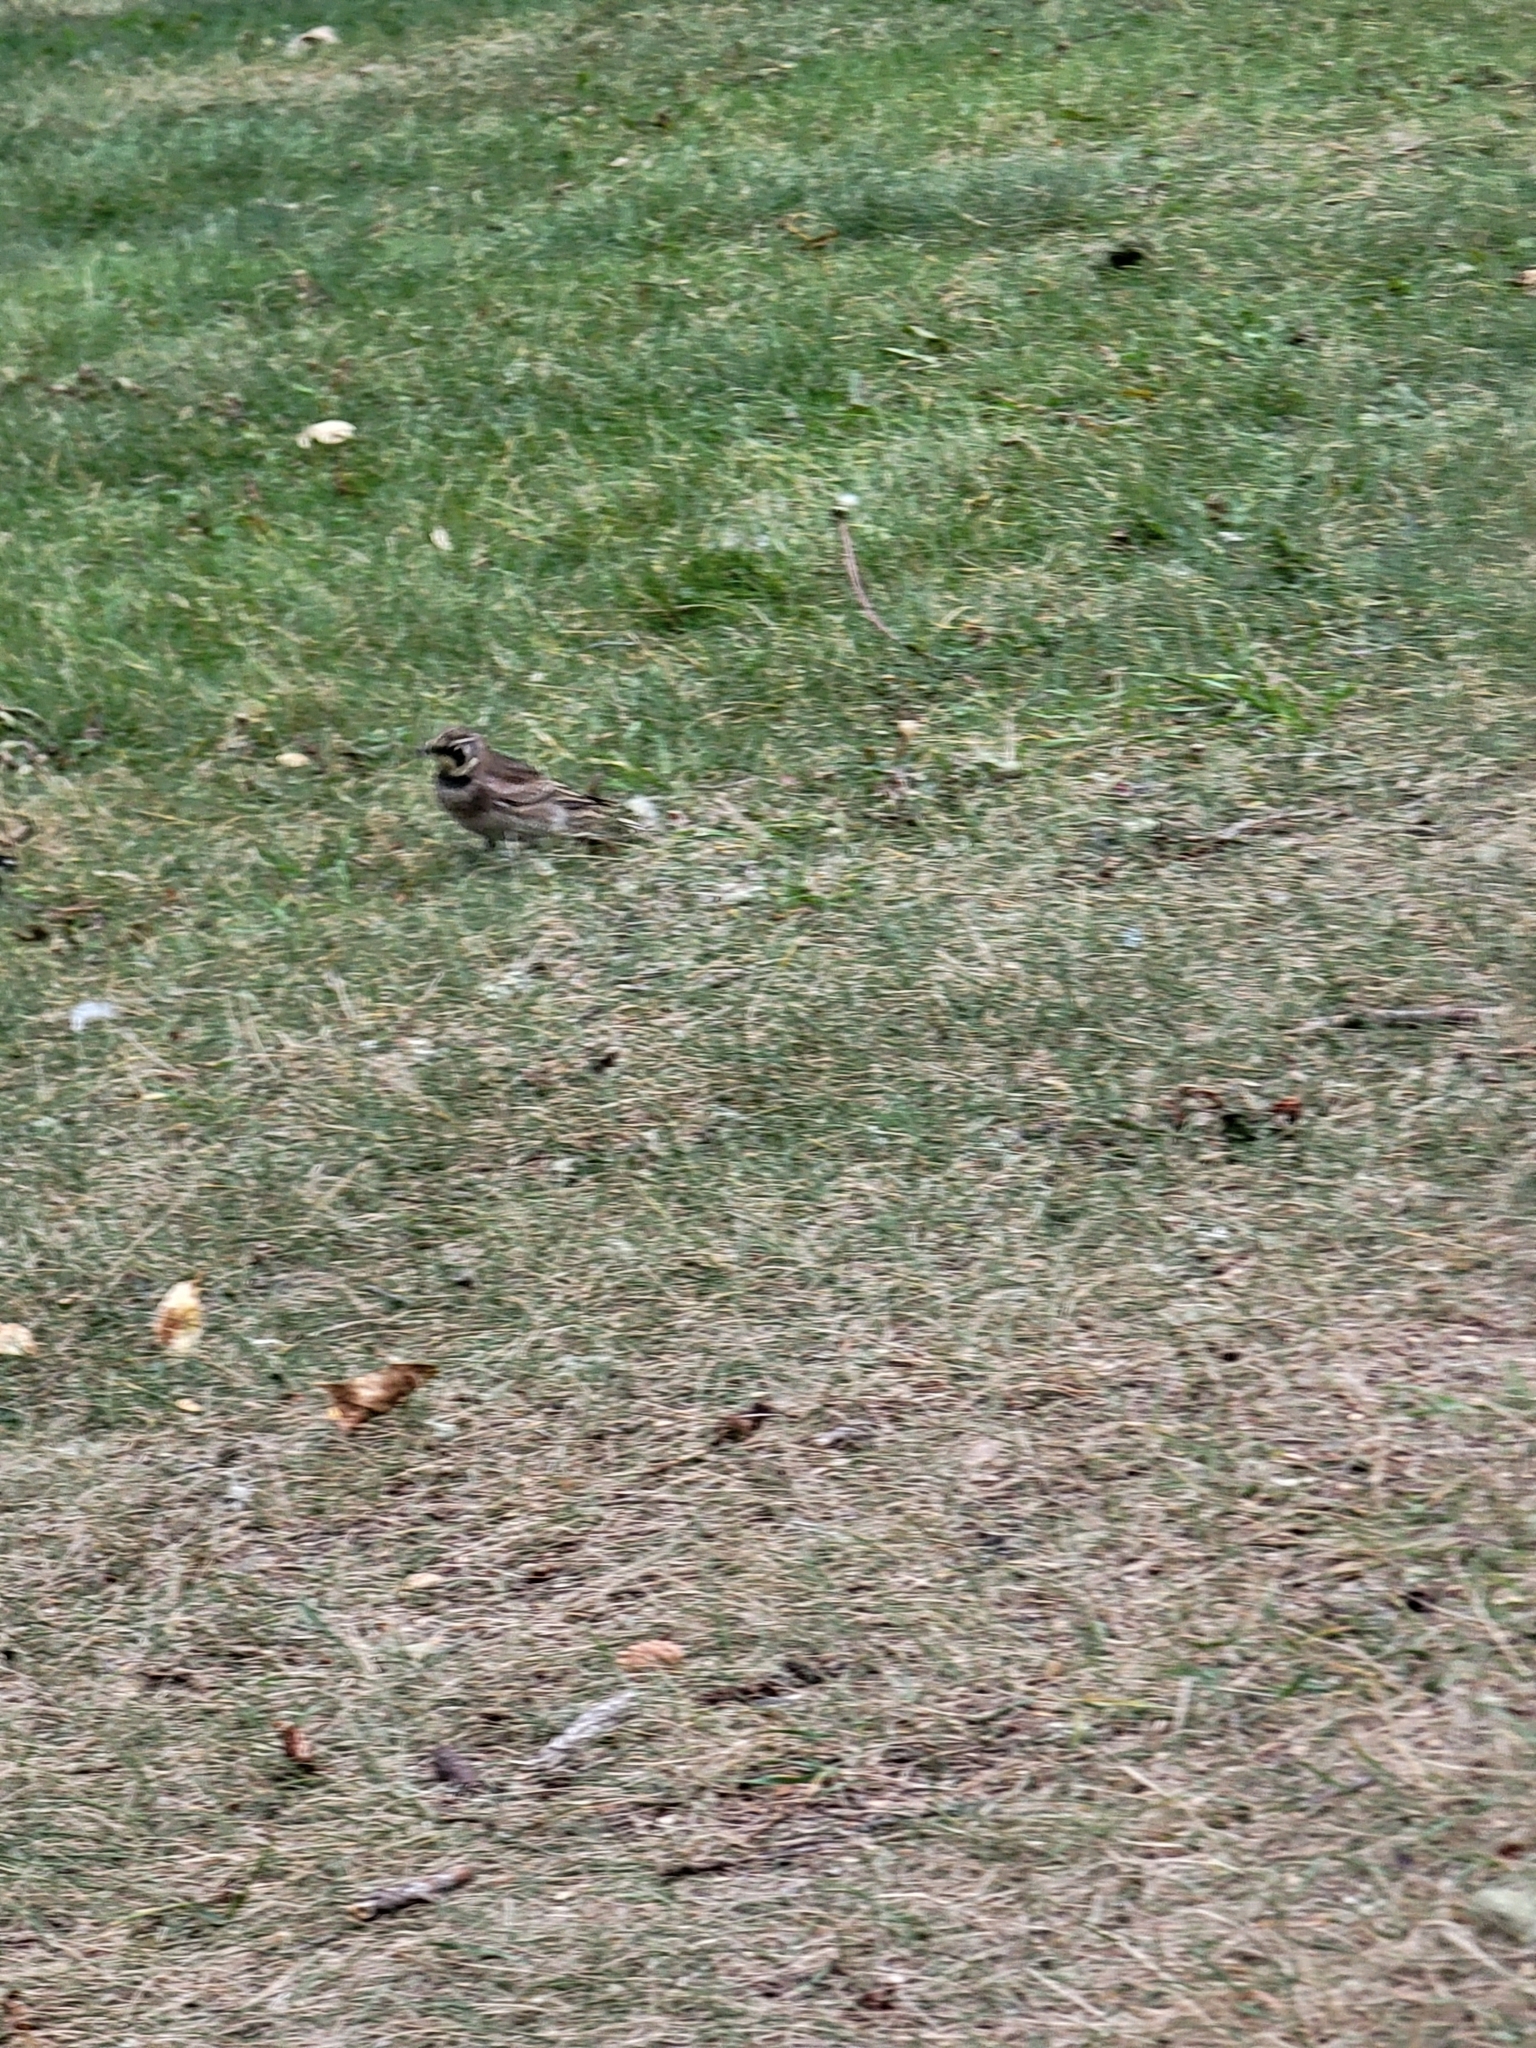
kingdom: Animalia
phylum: Chordata
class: Aves
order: Passeriformes
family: Alaudidae
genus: Eremophila
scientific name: Eremophila alpestris
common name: Horned lark
